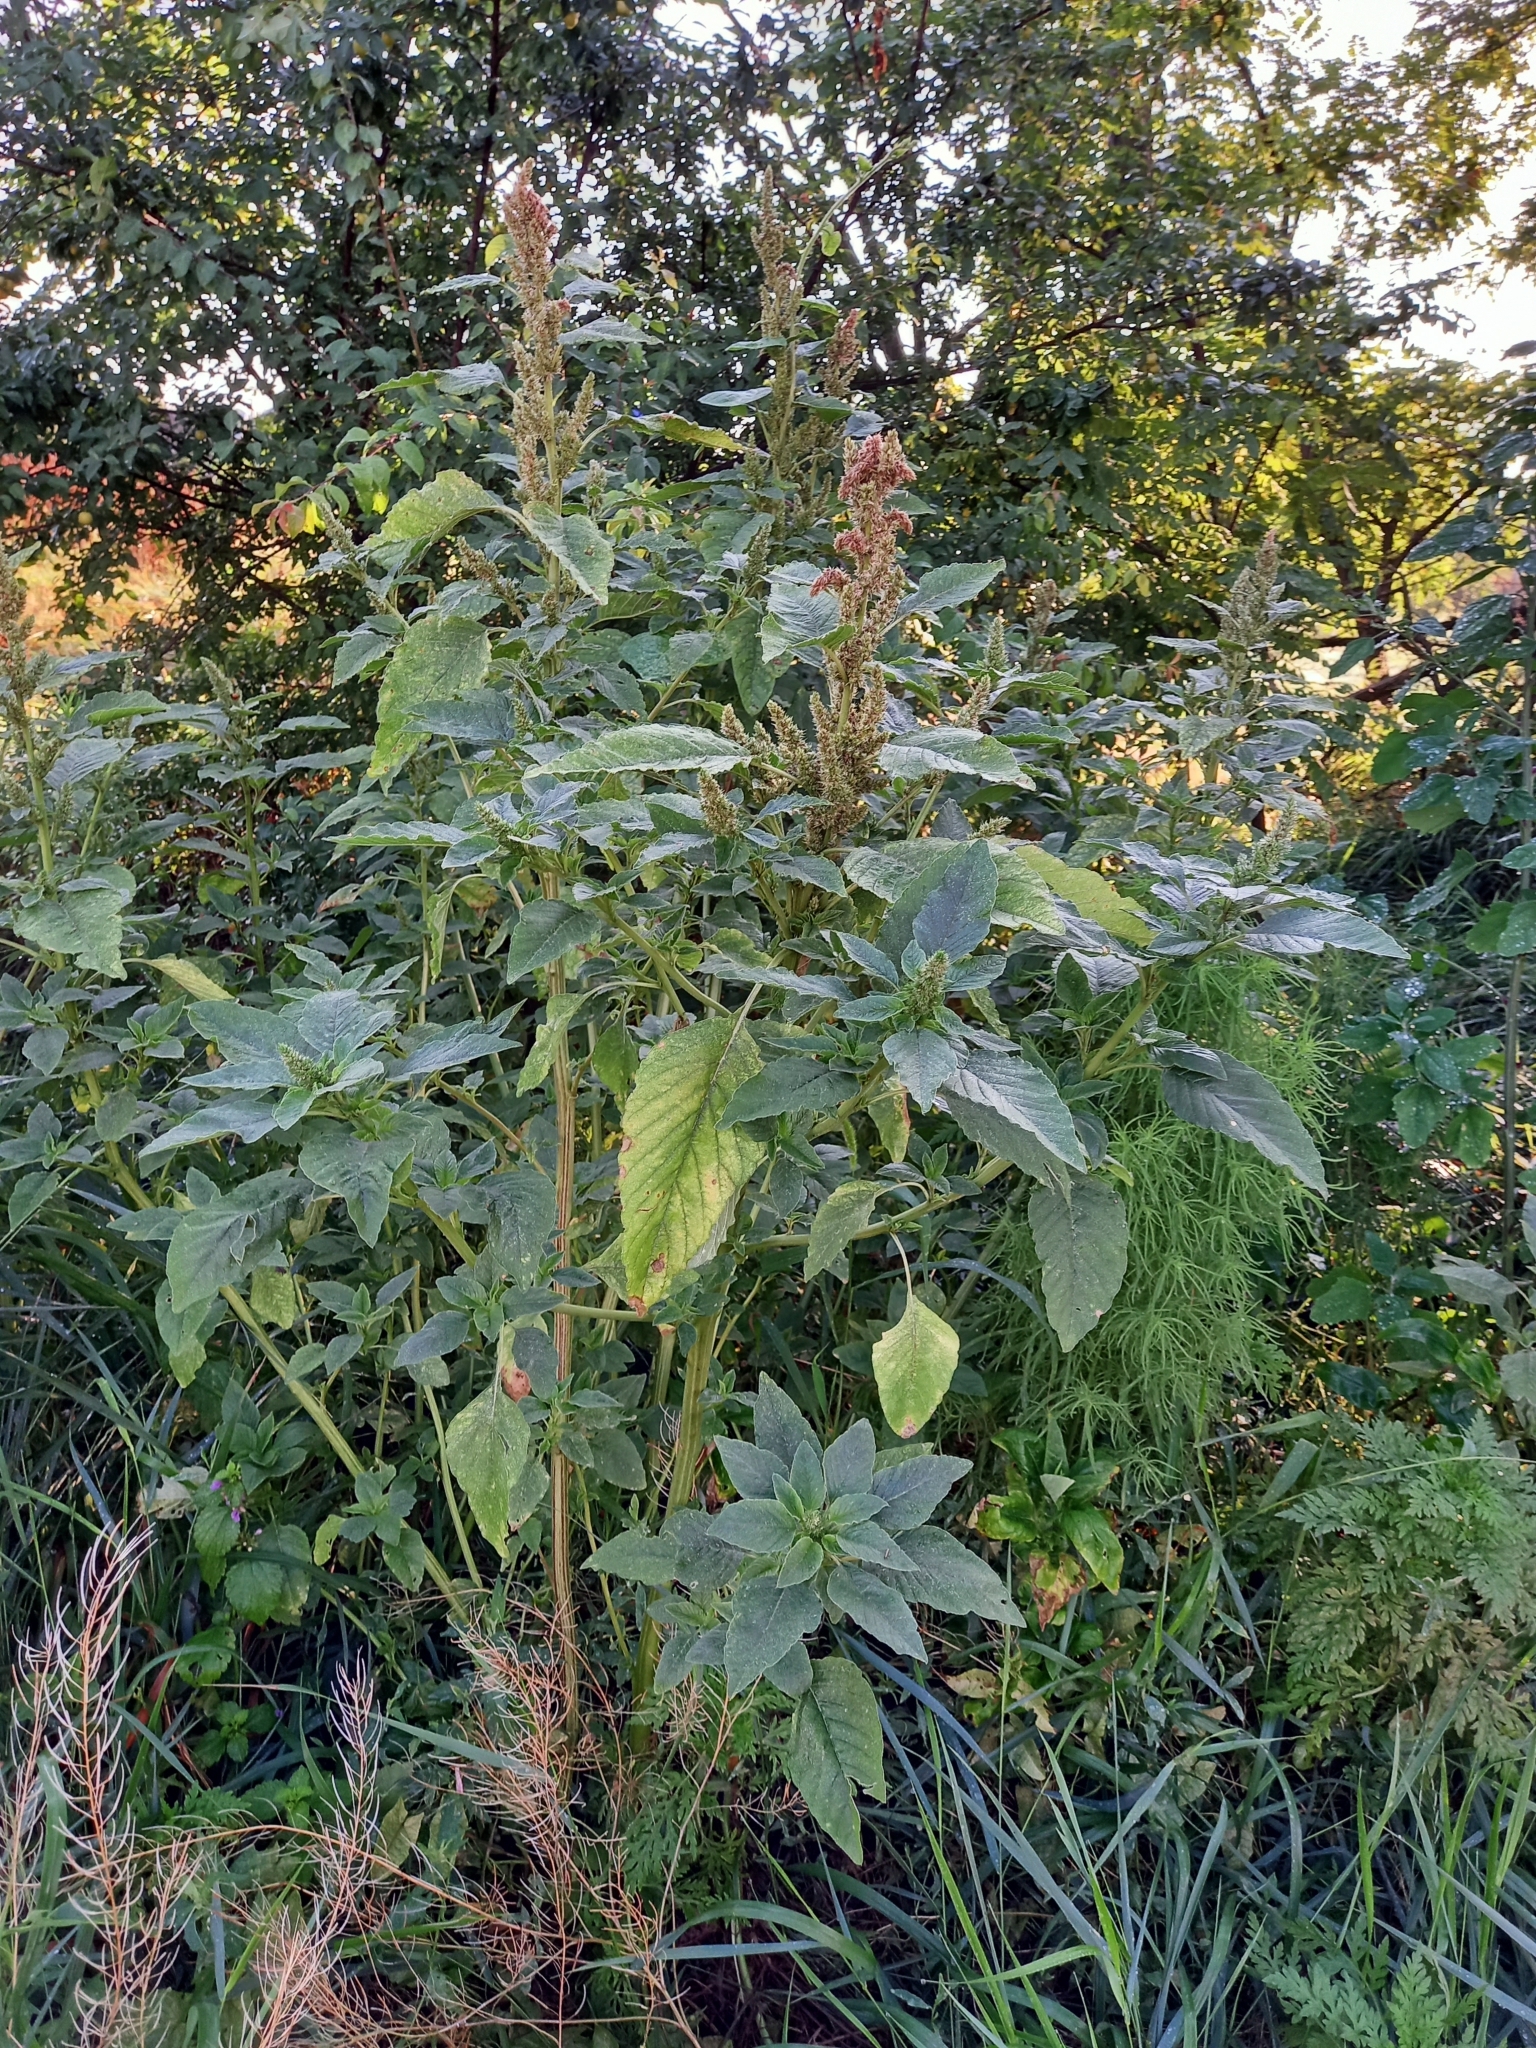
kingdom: Plantae
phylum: Tracheophyta
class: Magnoliopsida
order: Caryophyllales
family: Amaranthaceae
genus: Amaranthus
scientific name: Amaranthus retroflexus
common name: Redroot amaranth
